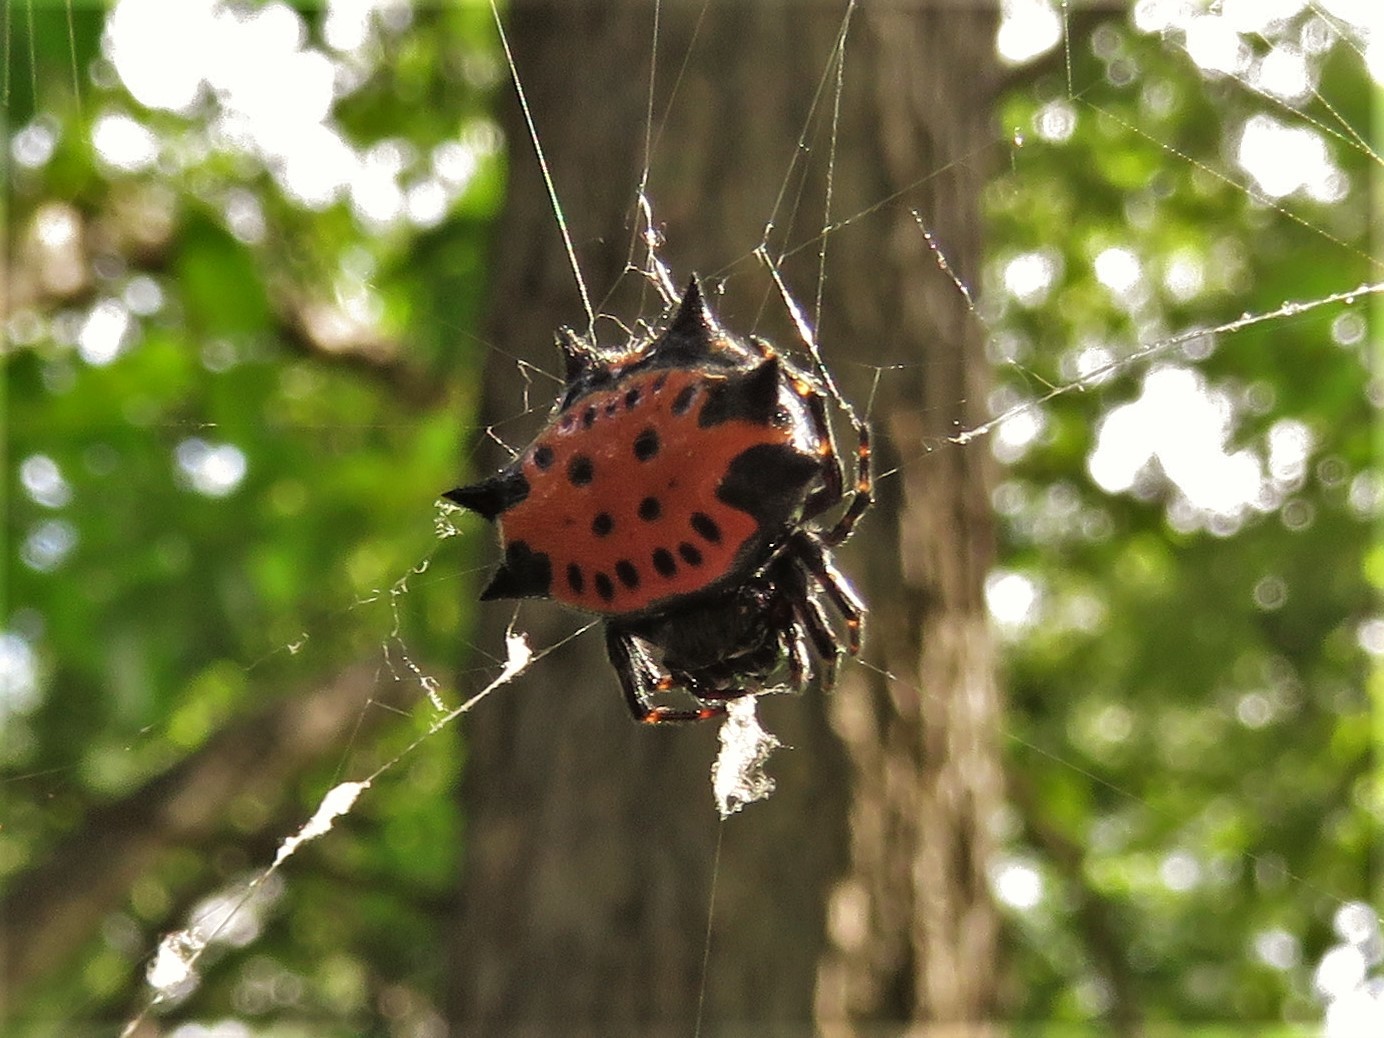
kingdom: Animalia
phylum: Arthropoda
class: Arachnida
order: Araneae
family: Araneidae
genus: Gasteracantha
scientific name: Gasteracantha cancriformis
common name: Orb weavers
